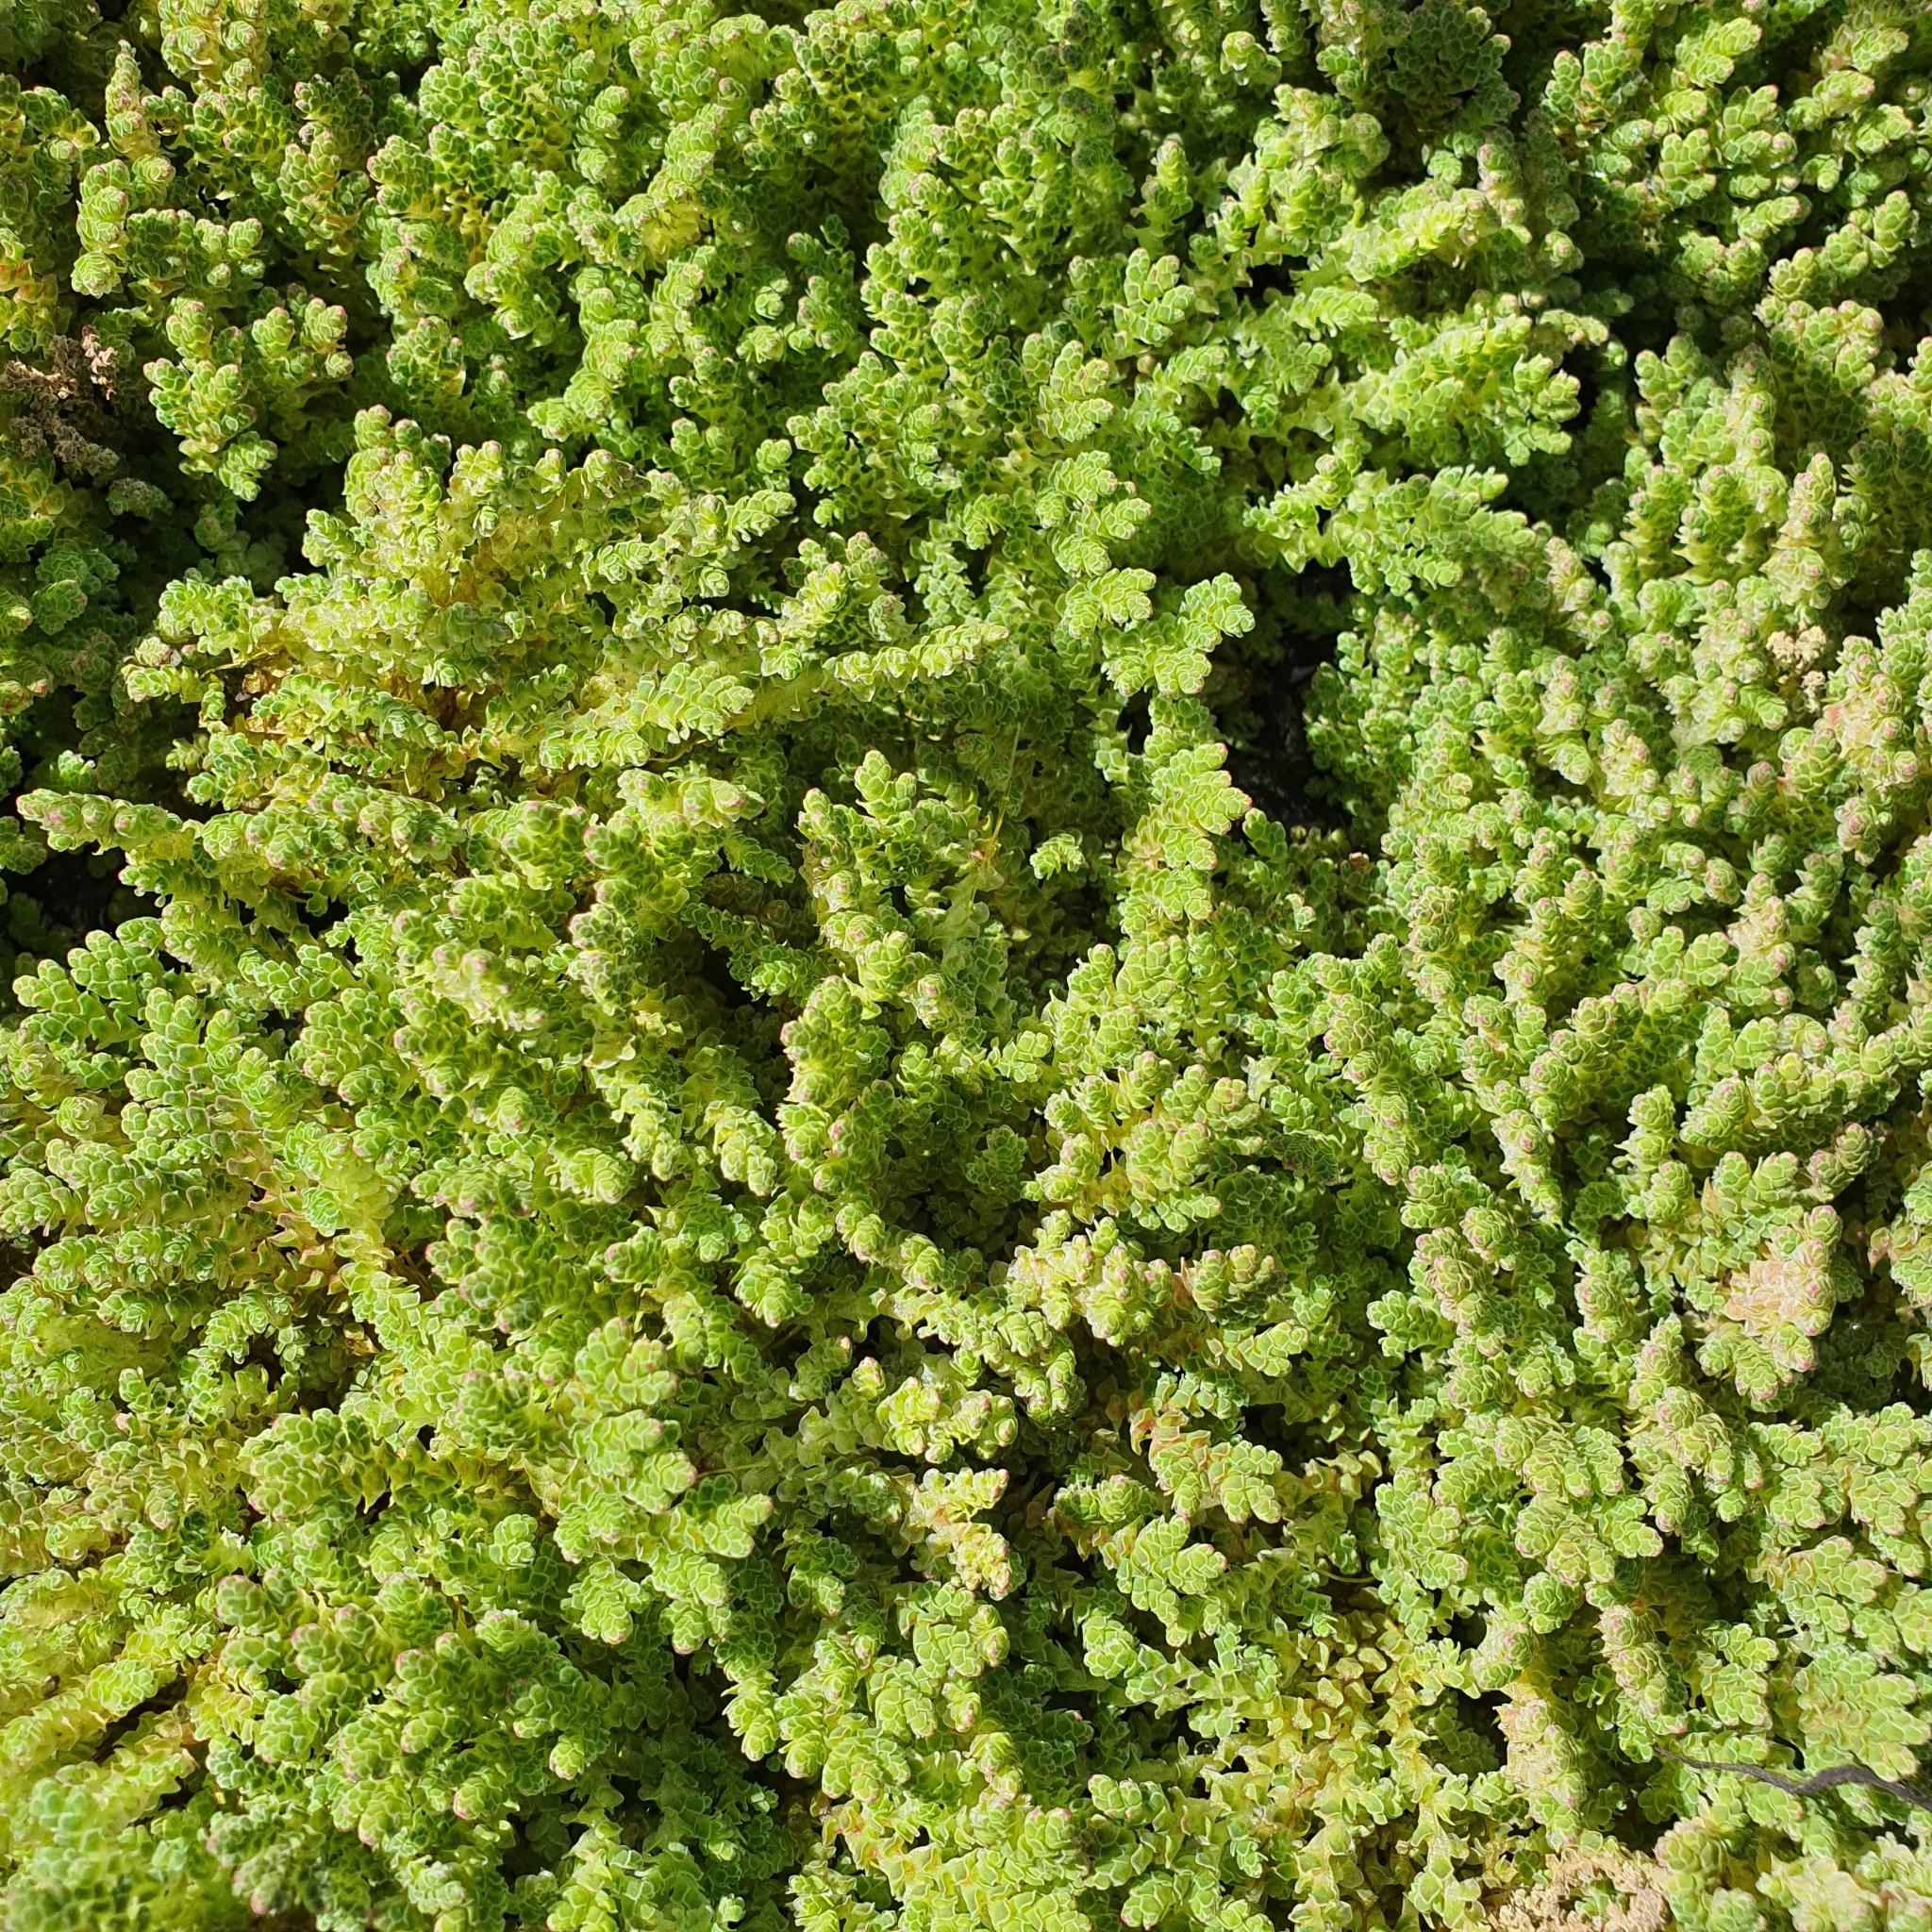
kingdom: Plantae
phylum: Tracheophyta
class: Polypodiopsida
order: Salviniales
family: Salviniaceae
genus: Azolla
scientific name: Azolla rubra
